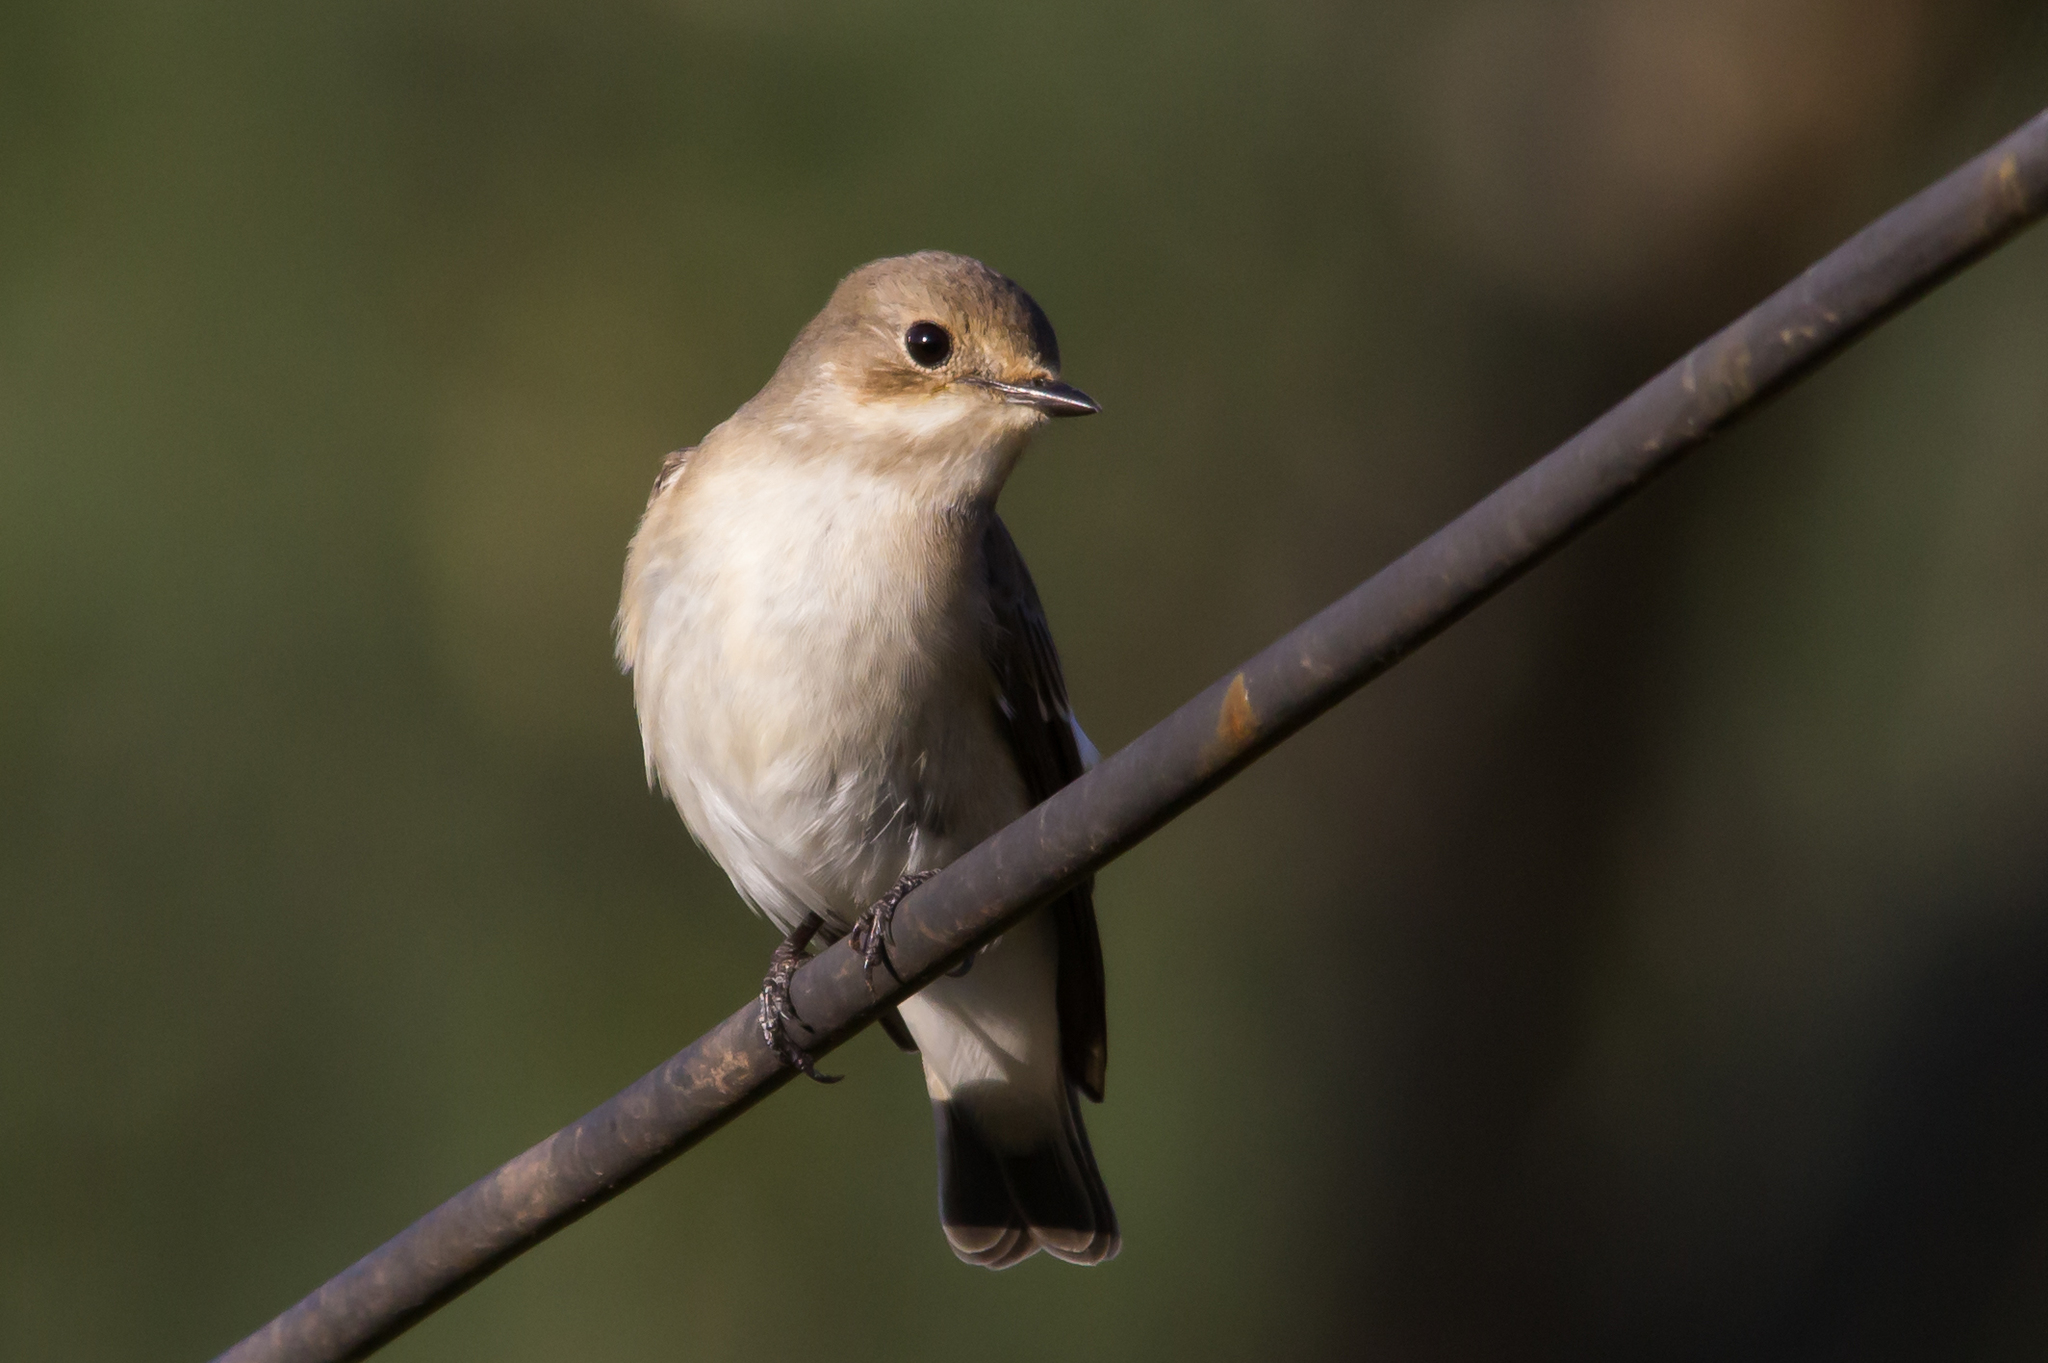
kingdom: Animalia
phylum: Chordata
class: Aves
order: Passeriformes
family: Muscicapidae
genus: Ficedula
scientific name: Ficedula hypoleuca
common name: European pied flycatcher
